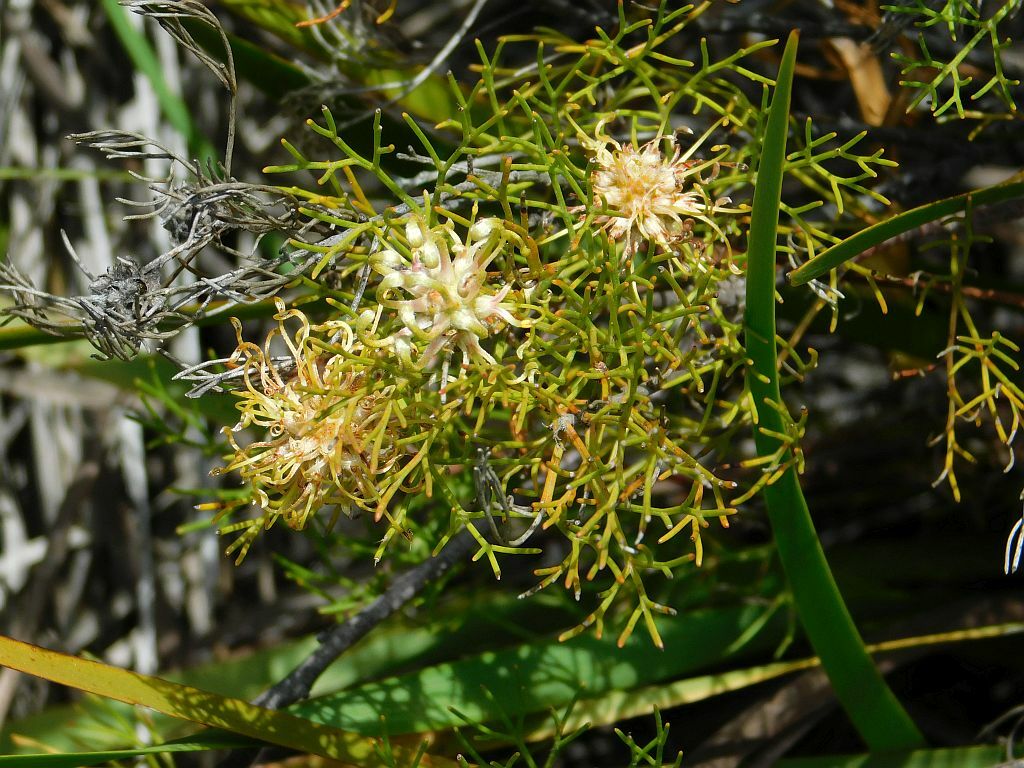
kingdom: Plantae
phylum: Tracheophyta
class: Magnoliopsida
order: Proteales
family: Proteaceae
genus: Serruria
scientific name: Serruria
